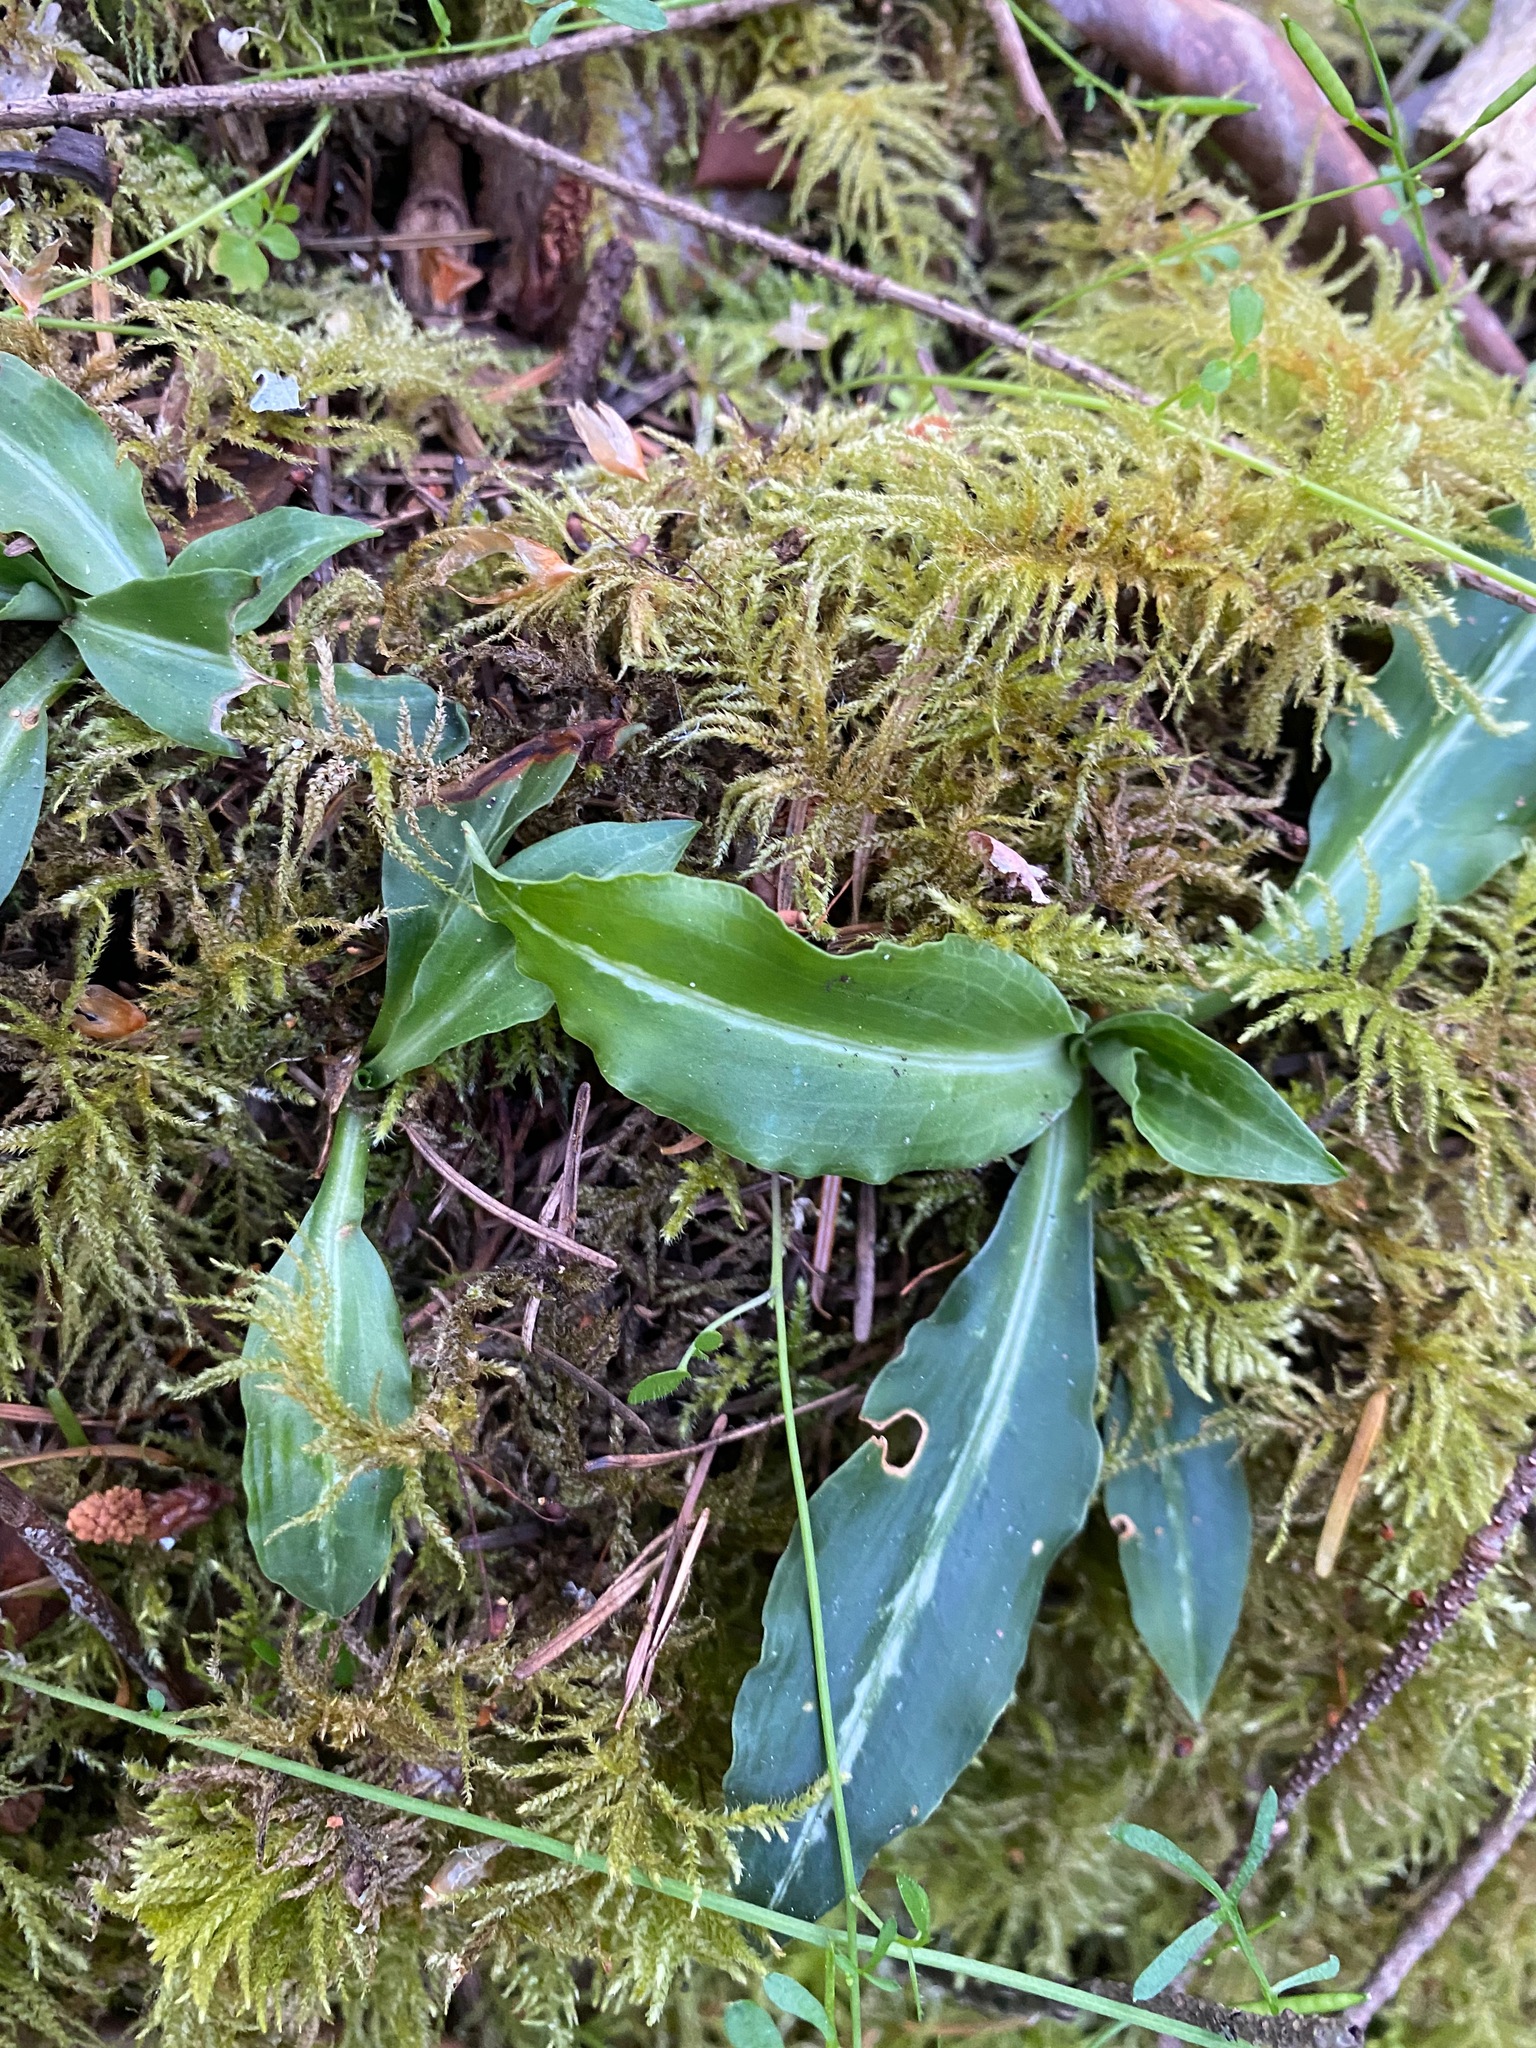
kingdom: Plantae
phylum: Tracheophyta
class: Liliopsida
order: Asparagales
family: Orchidaceae
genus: Goodyera
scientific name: Goodyera oblongifolia
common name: Giant rattlesnake-plantain
